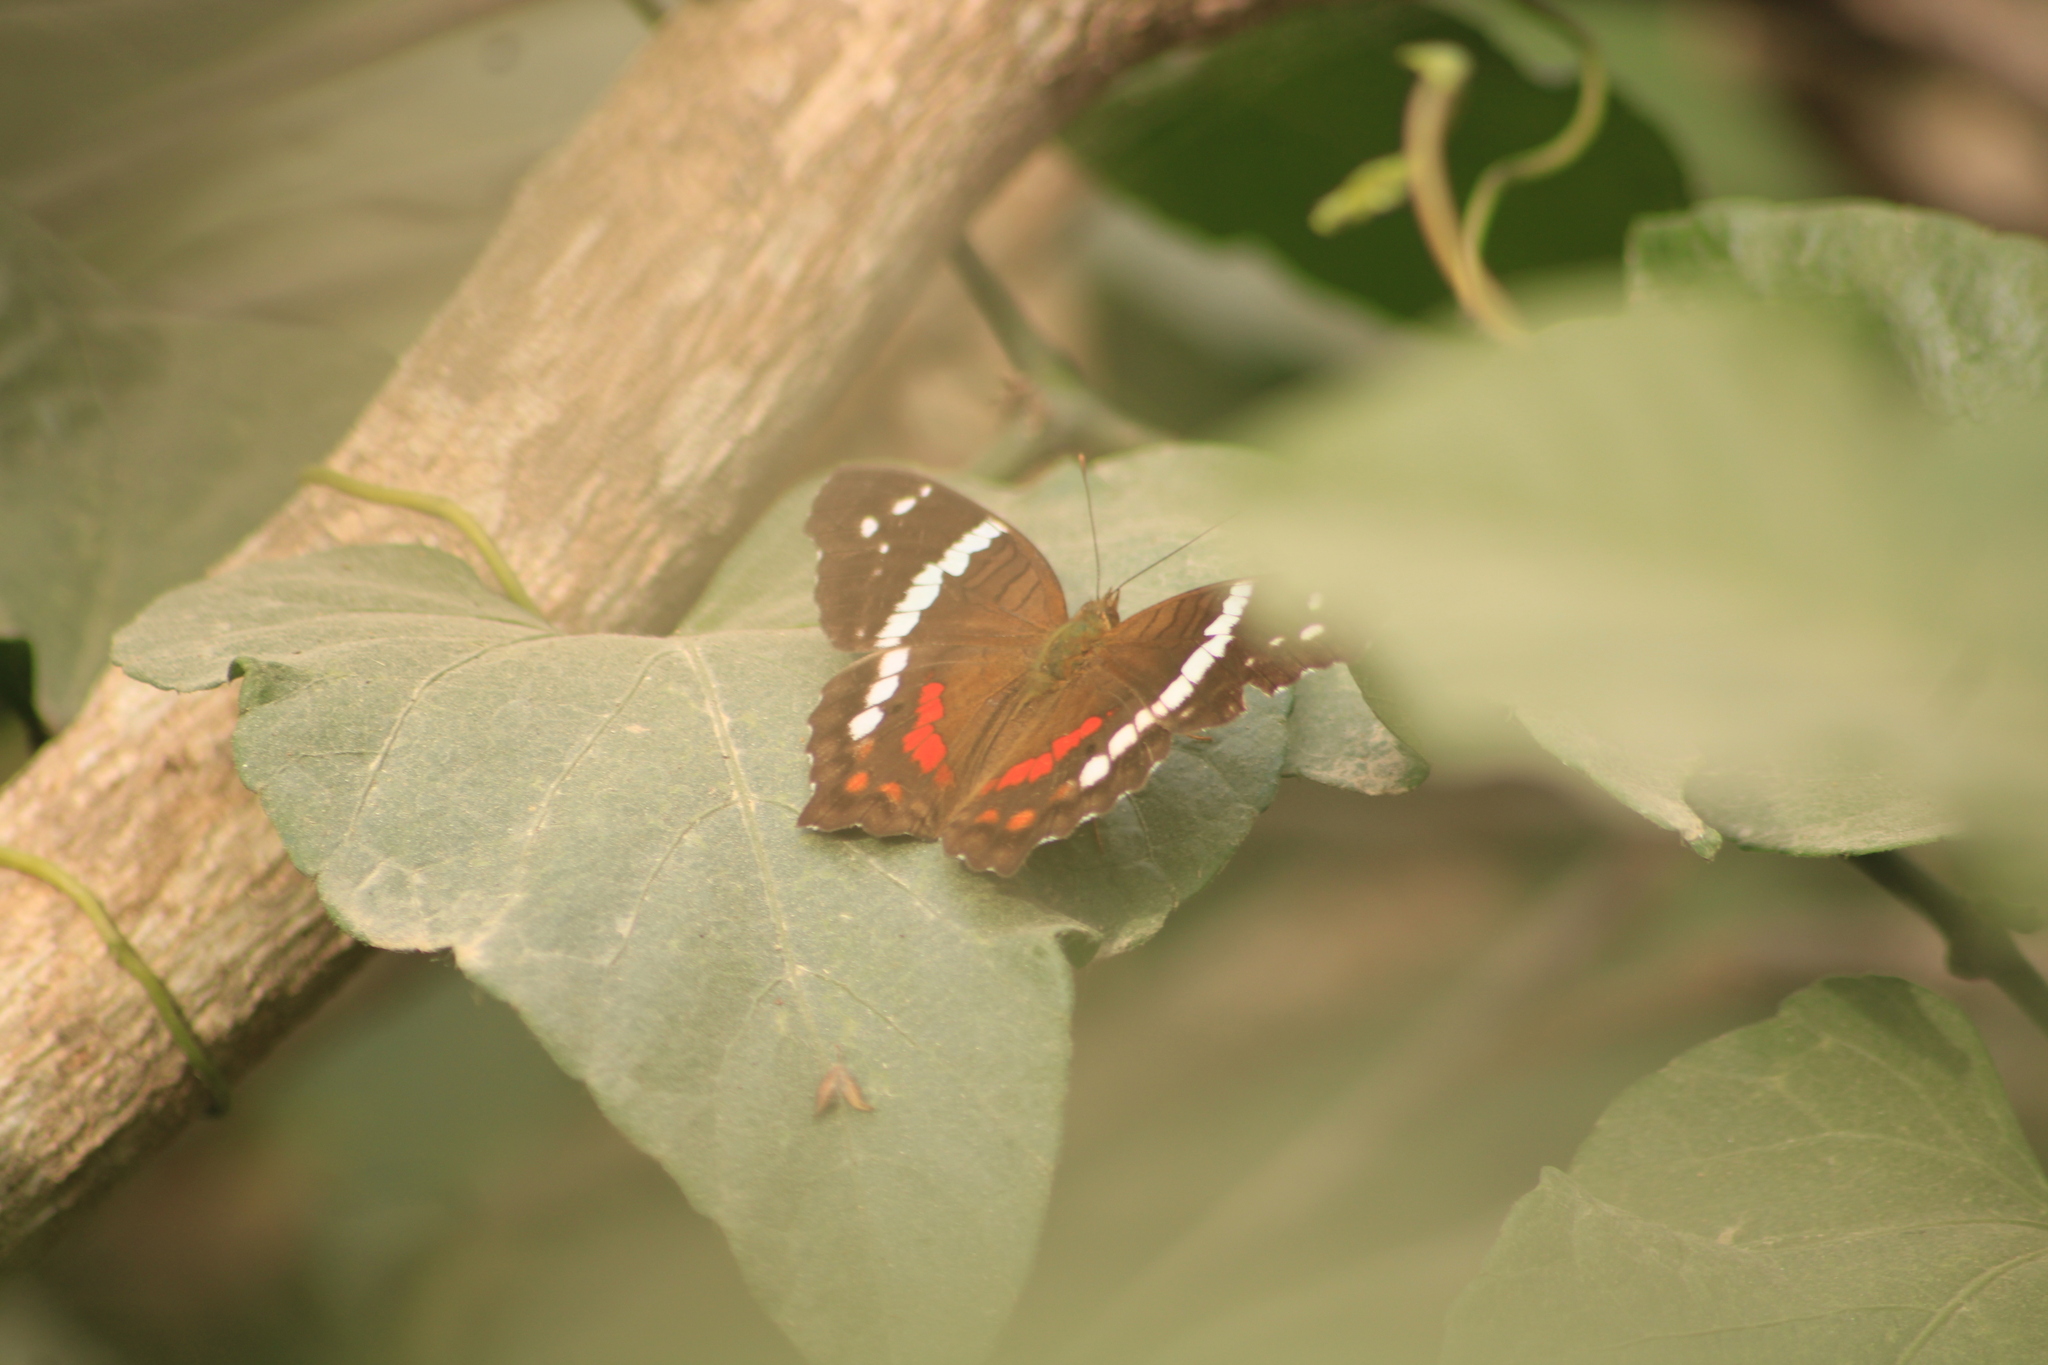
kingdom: Animalia
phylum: Arthropoda
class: Insecta
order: Lepidoptera
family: Nymphalidae
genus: Anartia
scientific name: Anartia fatima
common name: Banded peacock
